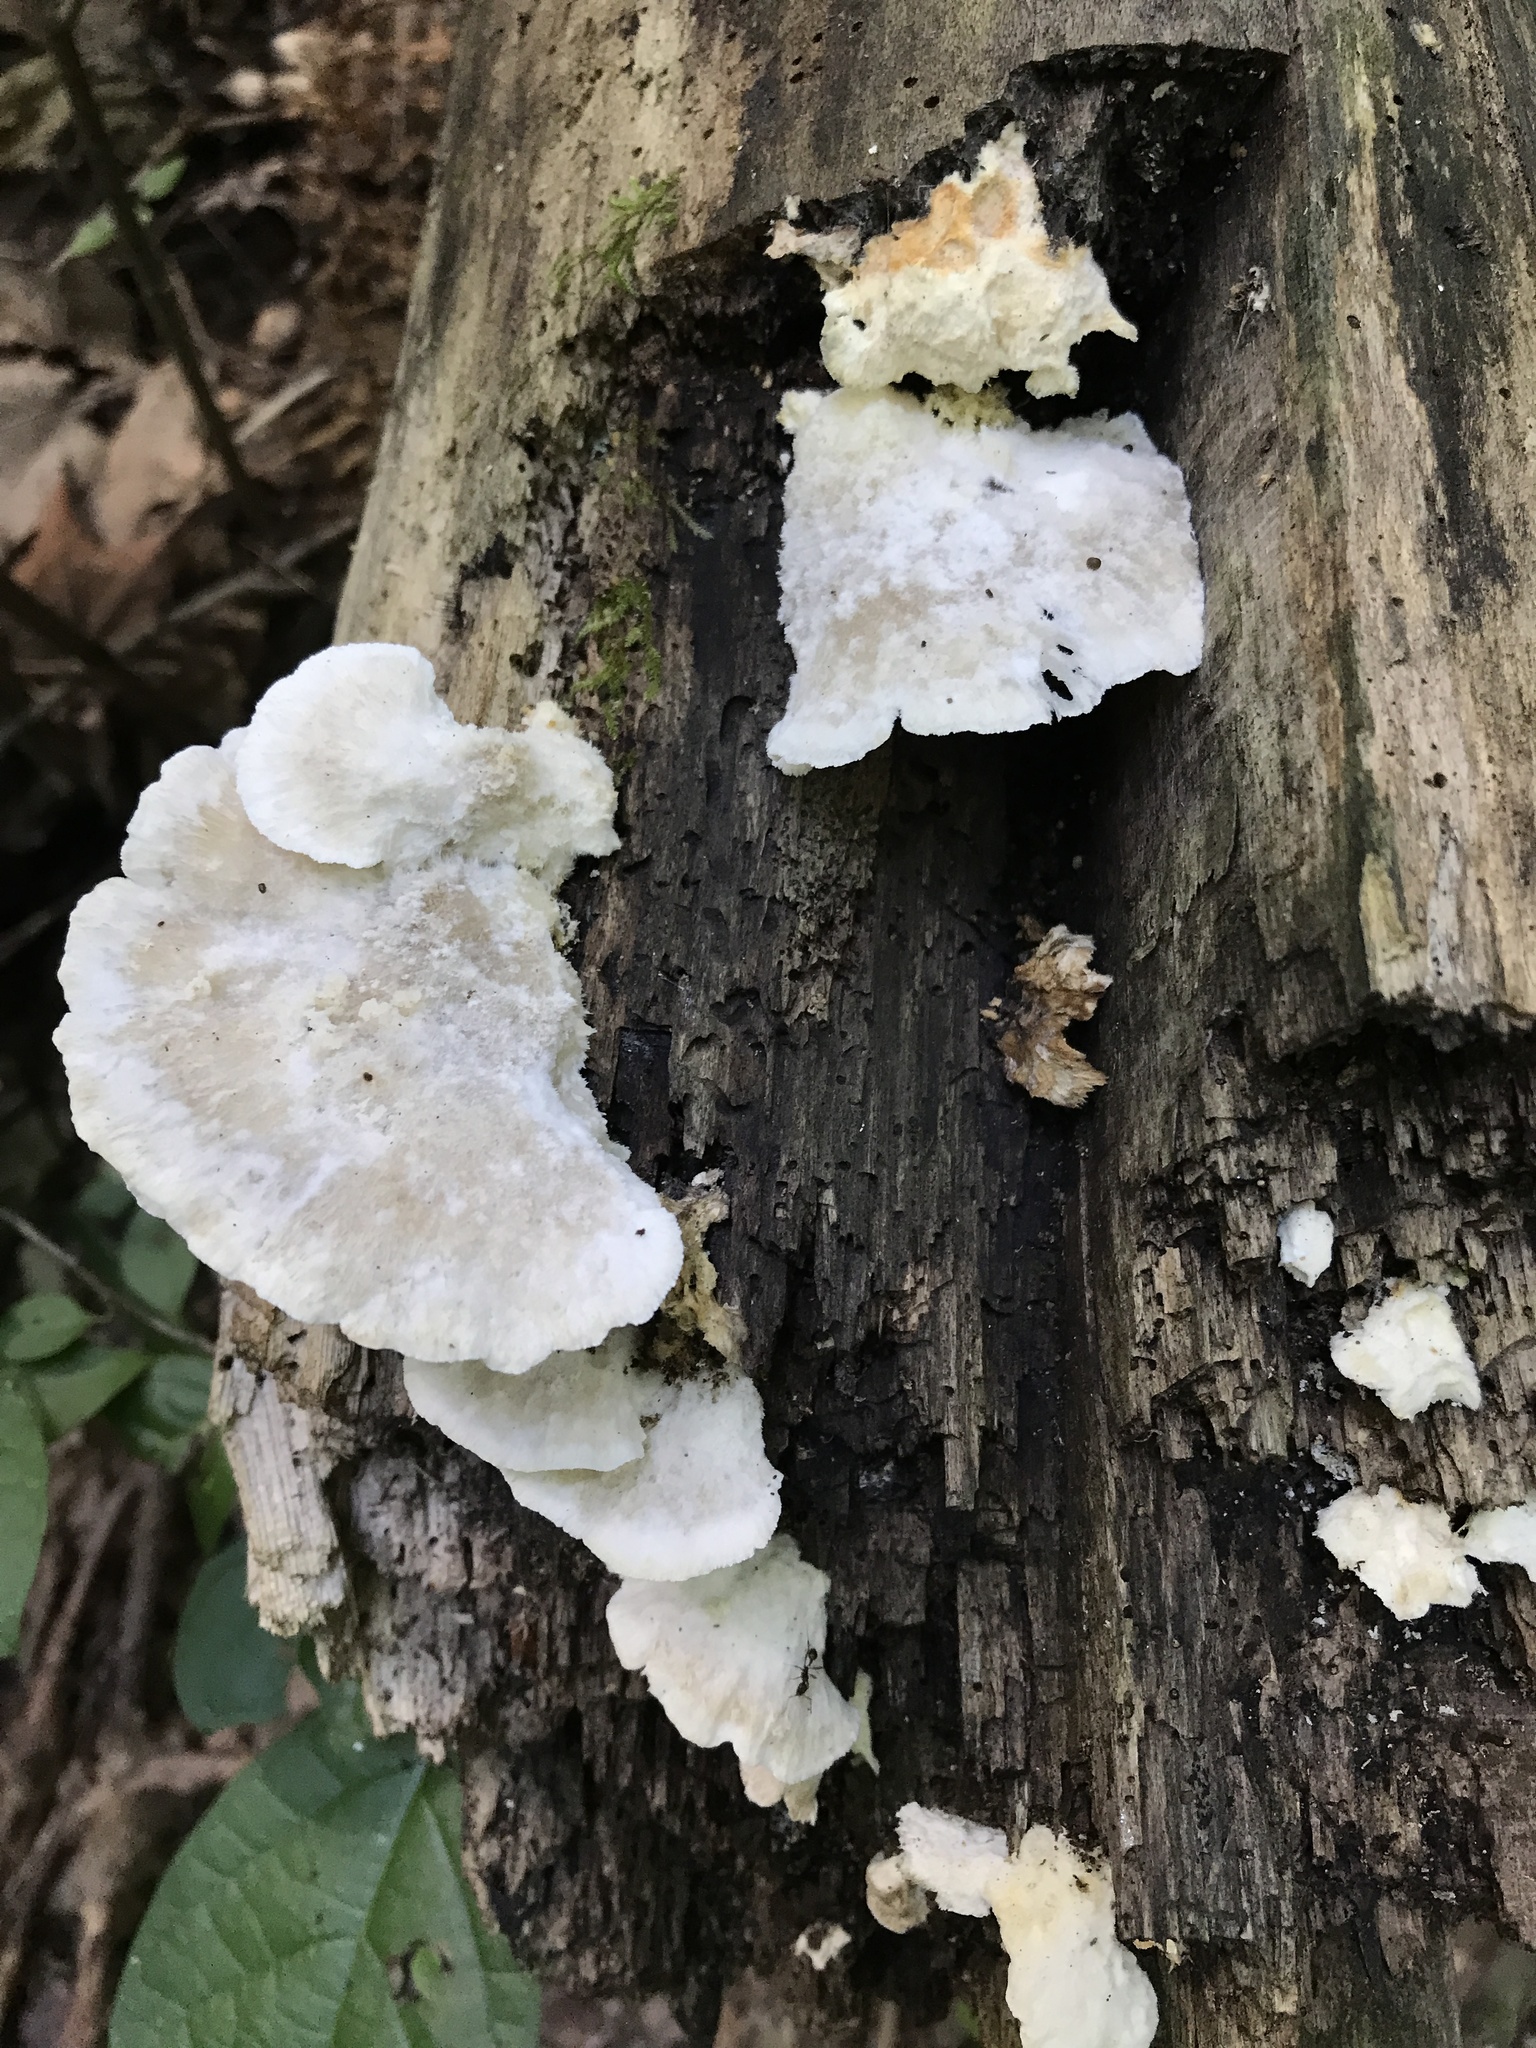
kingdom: Fungi
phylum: Basidiomycota
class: Agaricomycetes
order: Polyporales
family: Fomitopsidaceae
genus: Niveoporofomes
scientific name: Niveoporofomes spraguei
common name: Green cheese polypore
